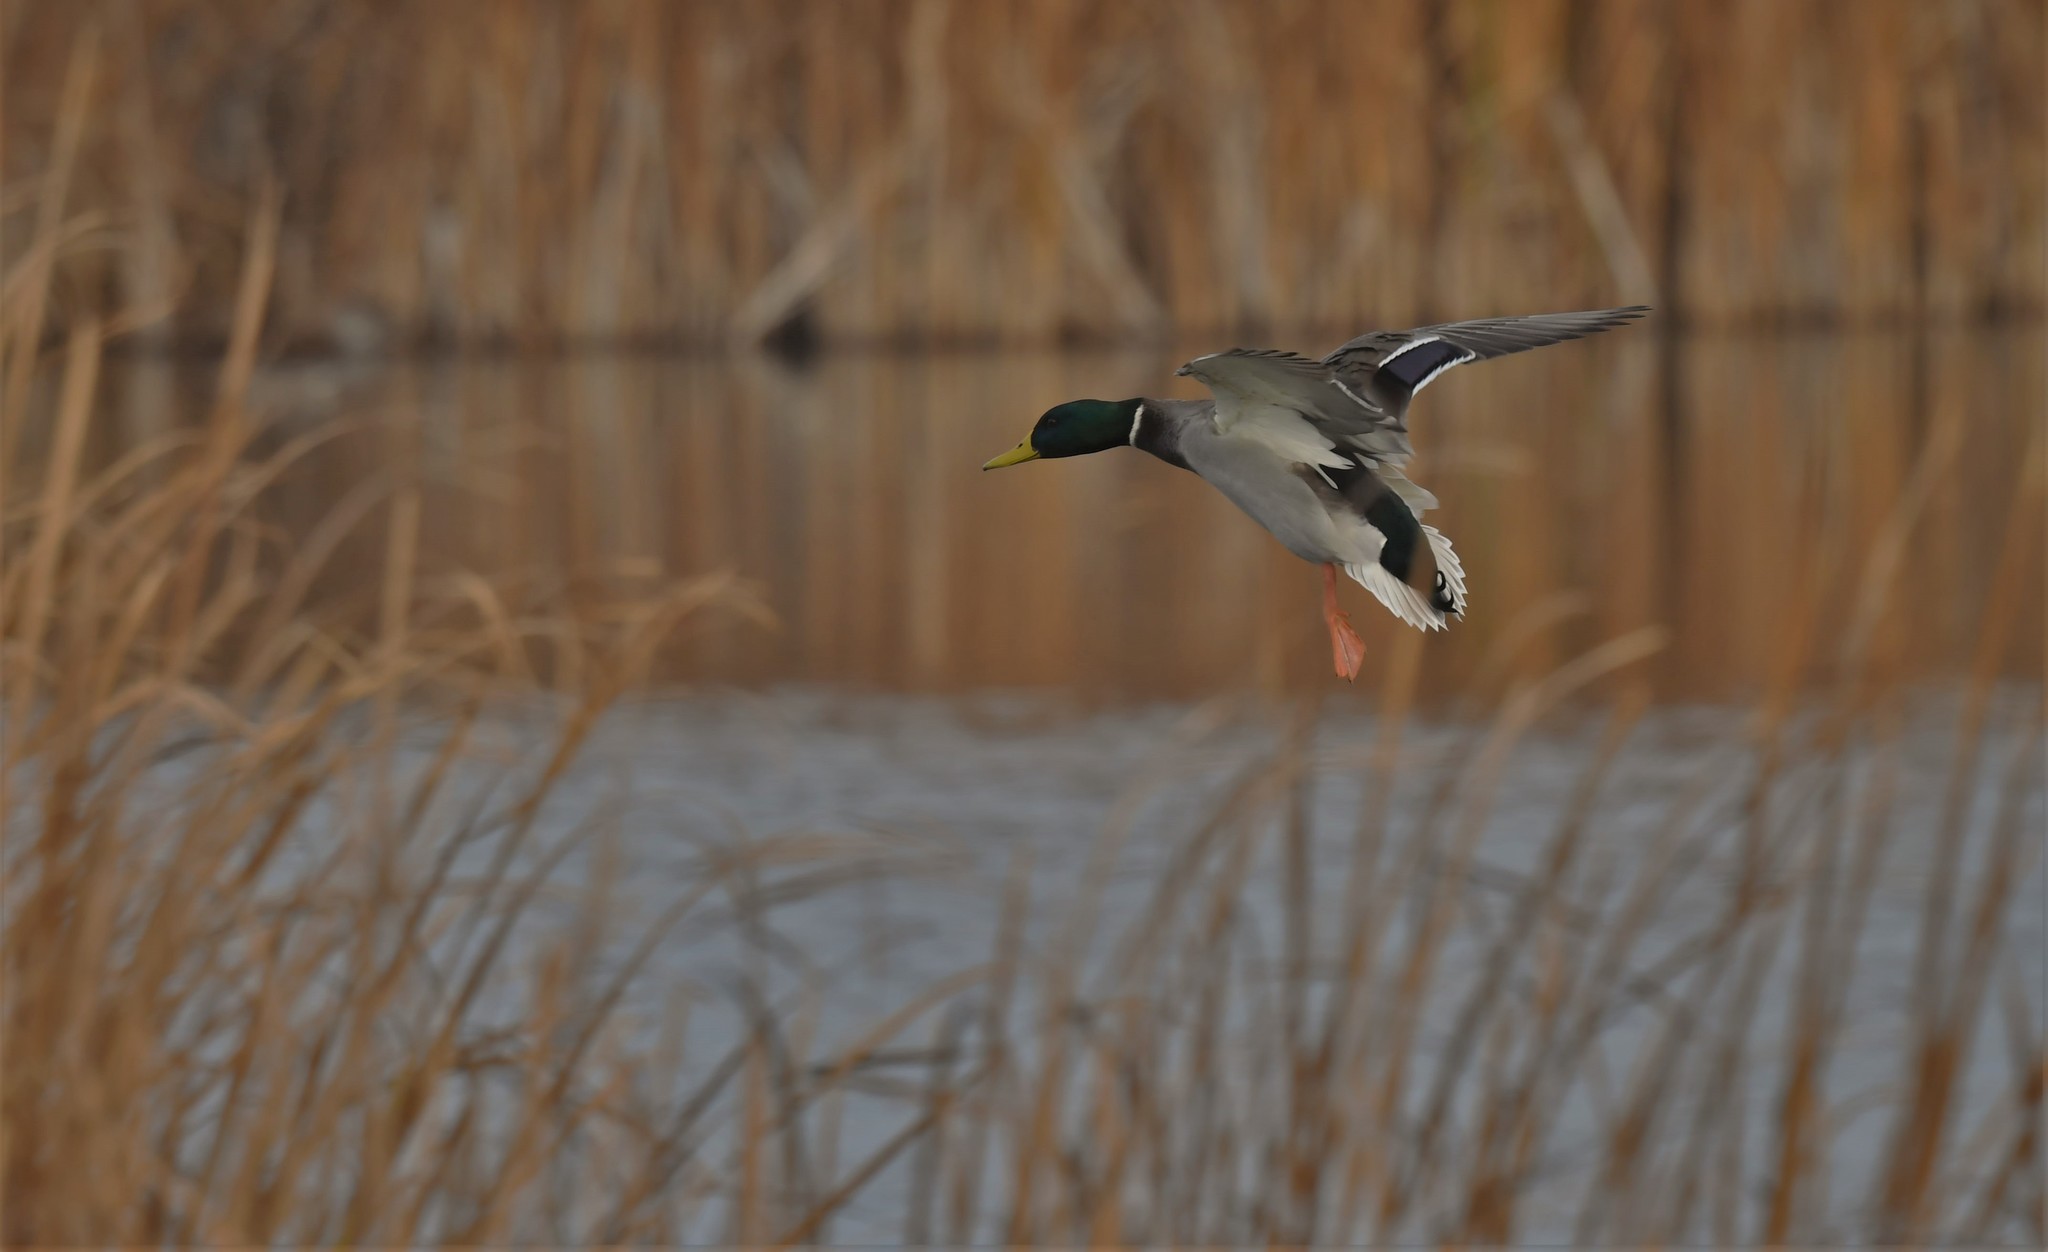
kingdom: Animalia
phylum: Chordata
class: Aves
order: Anseriformes
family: Anatidae
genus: Anas
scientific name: Anas platyrhynchos
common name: Mallard
